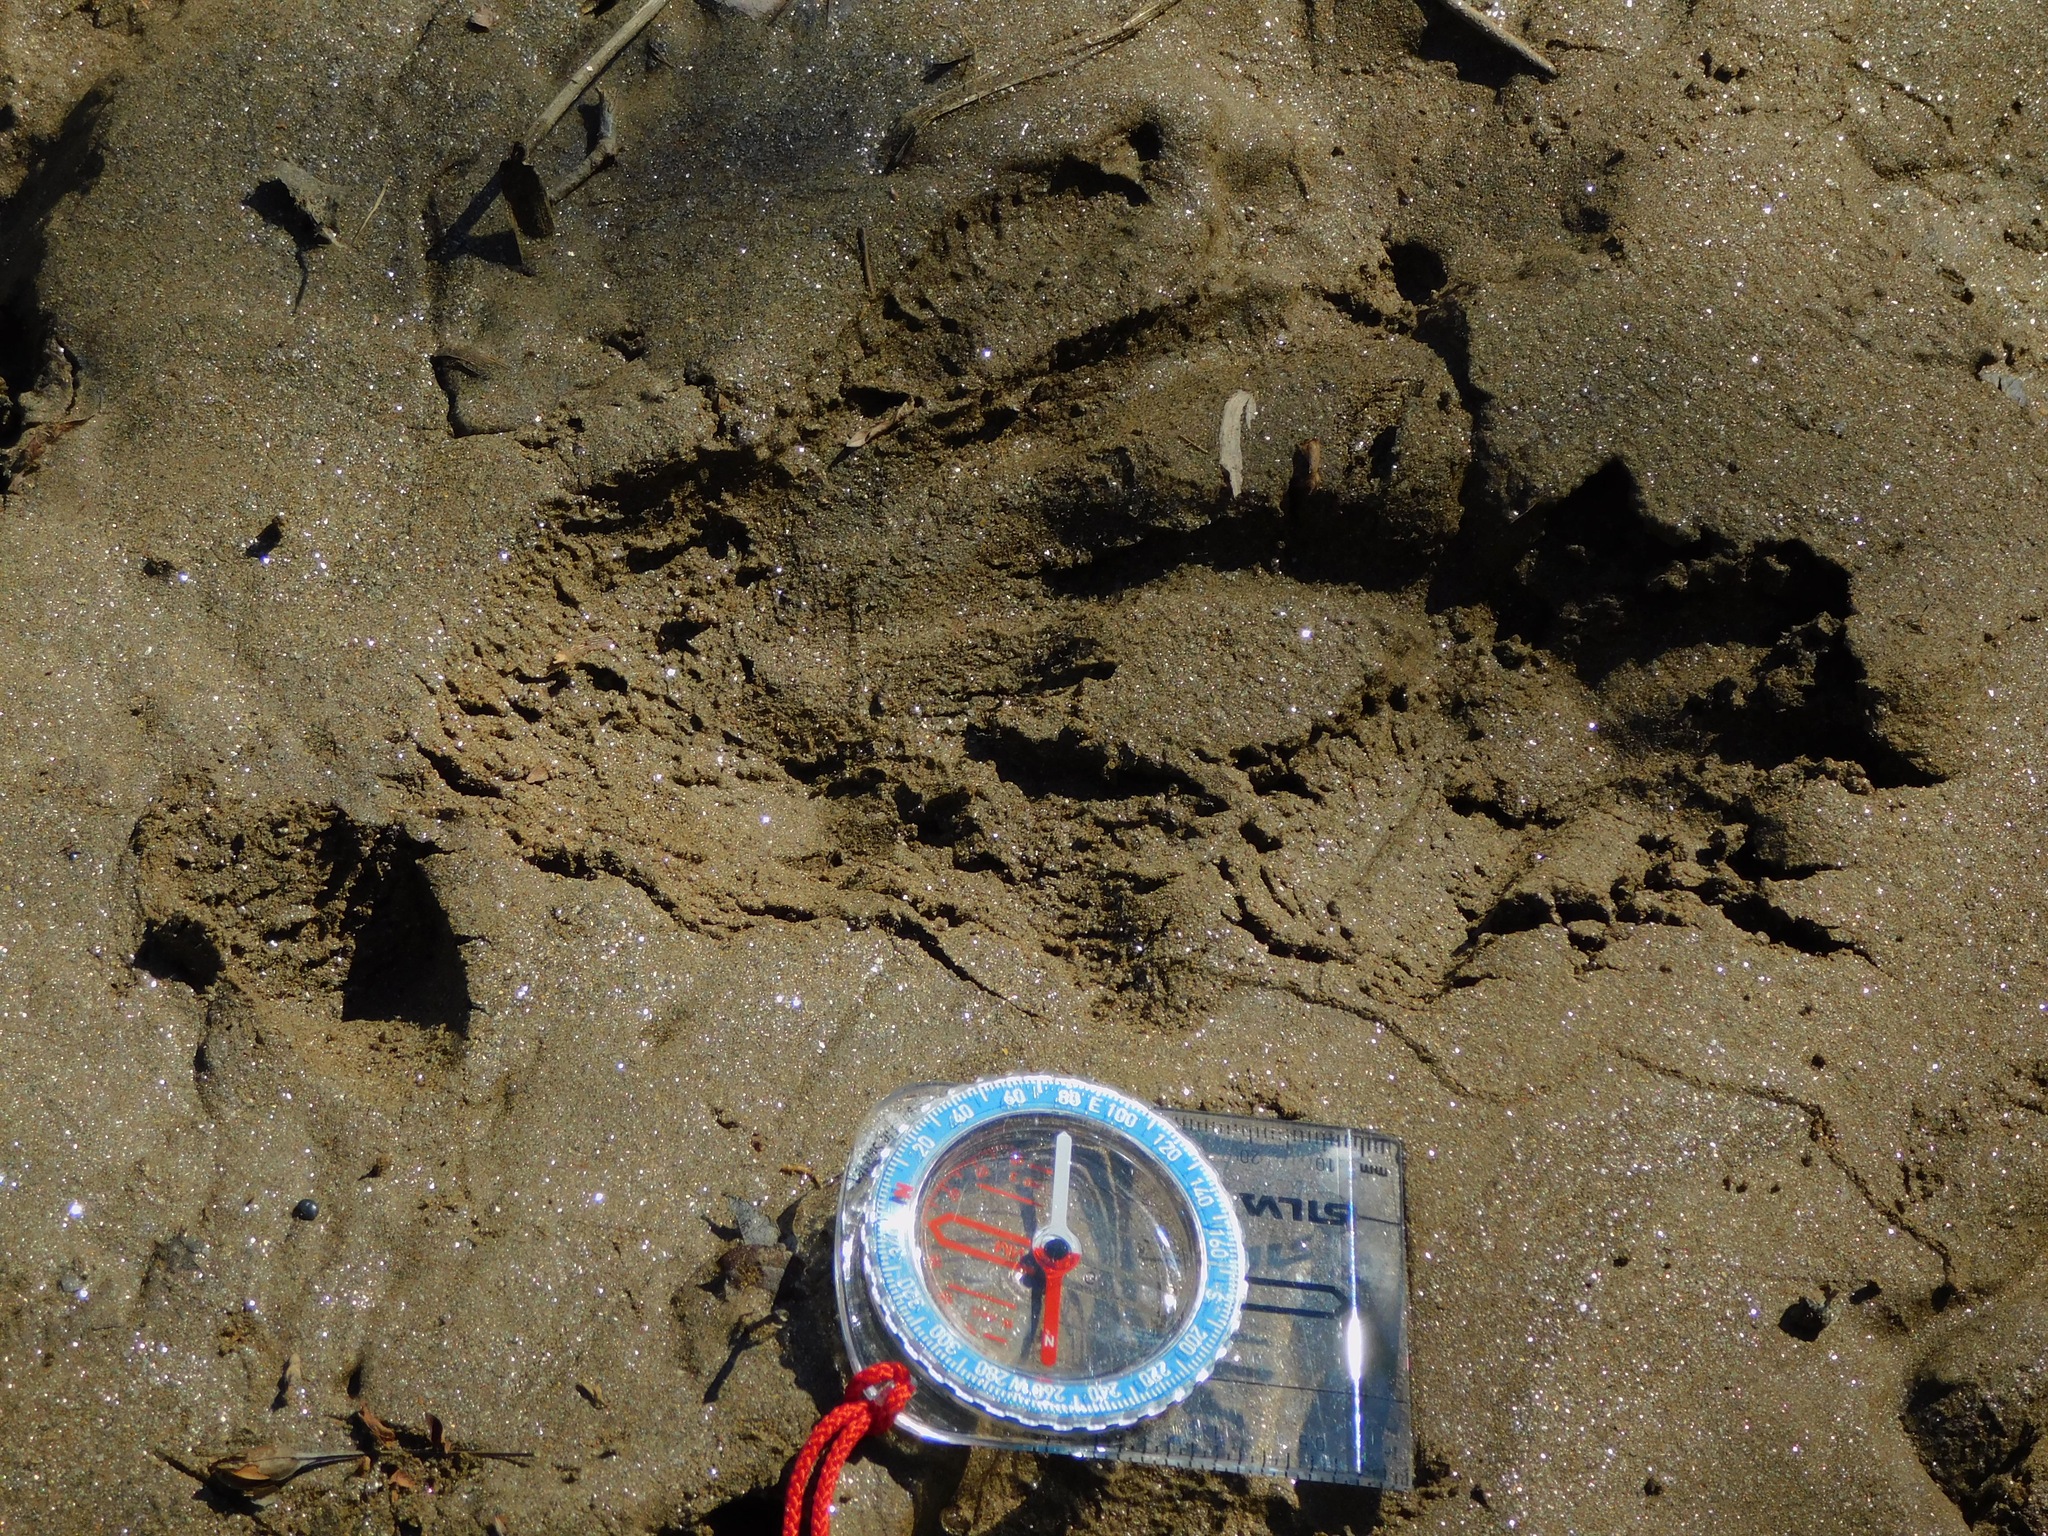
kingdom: Animalia
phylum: Chordata
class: Mammalia
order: Rodentia
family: Castoridae
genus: Castor
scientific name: Castor canadensis
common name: American beaver
